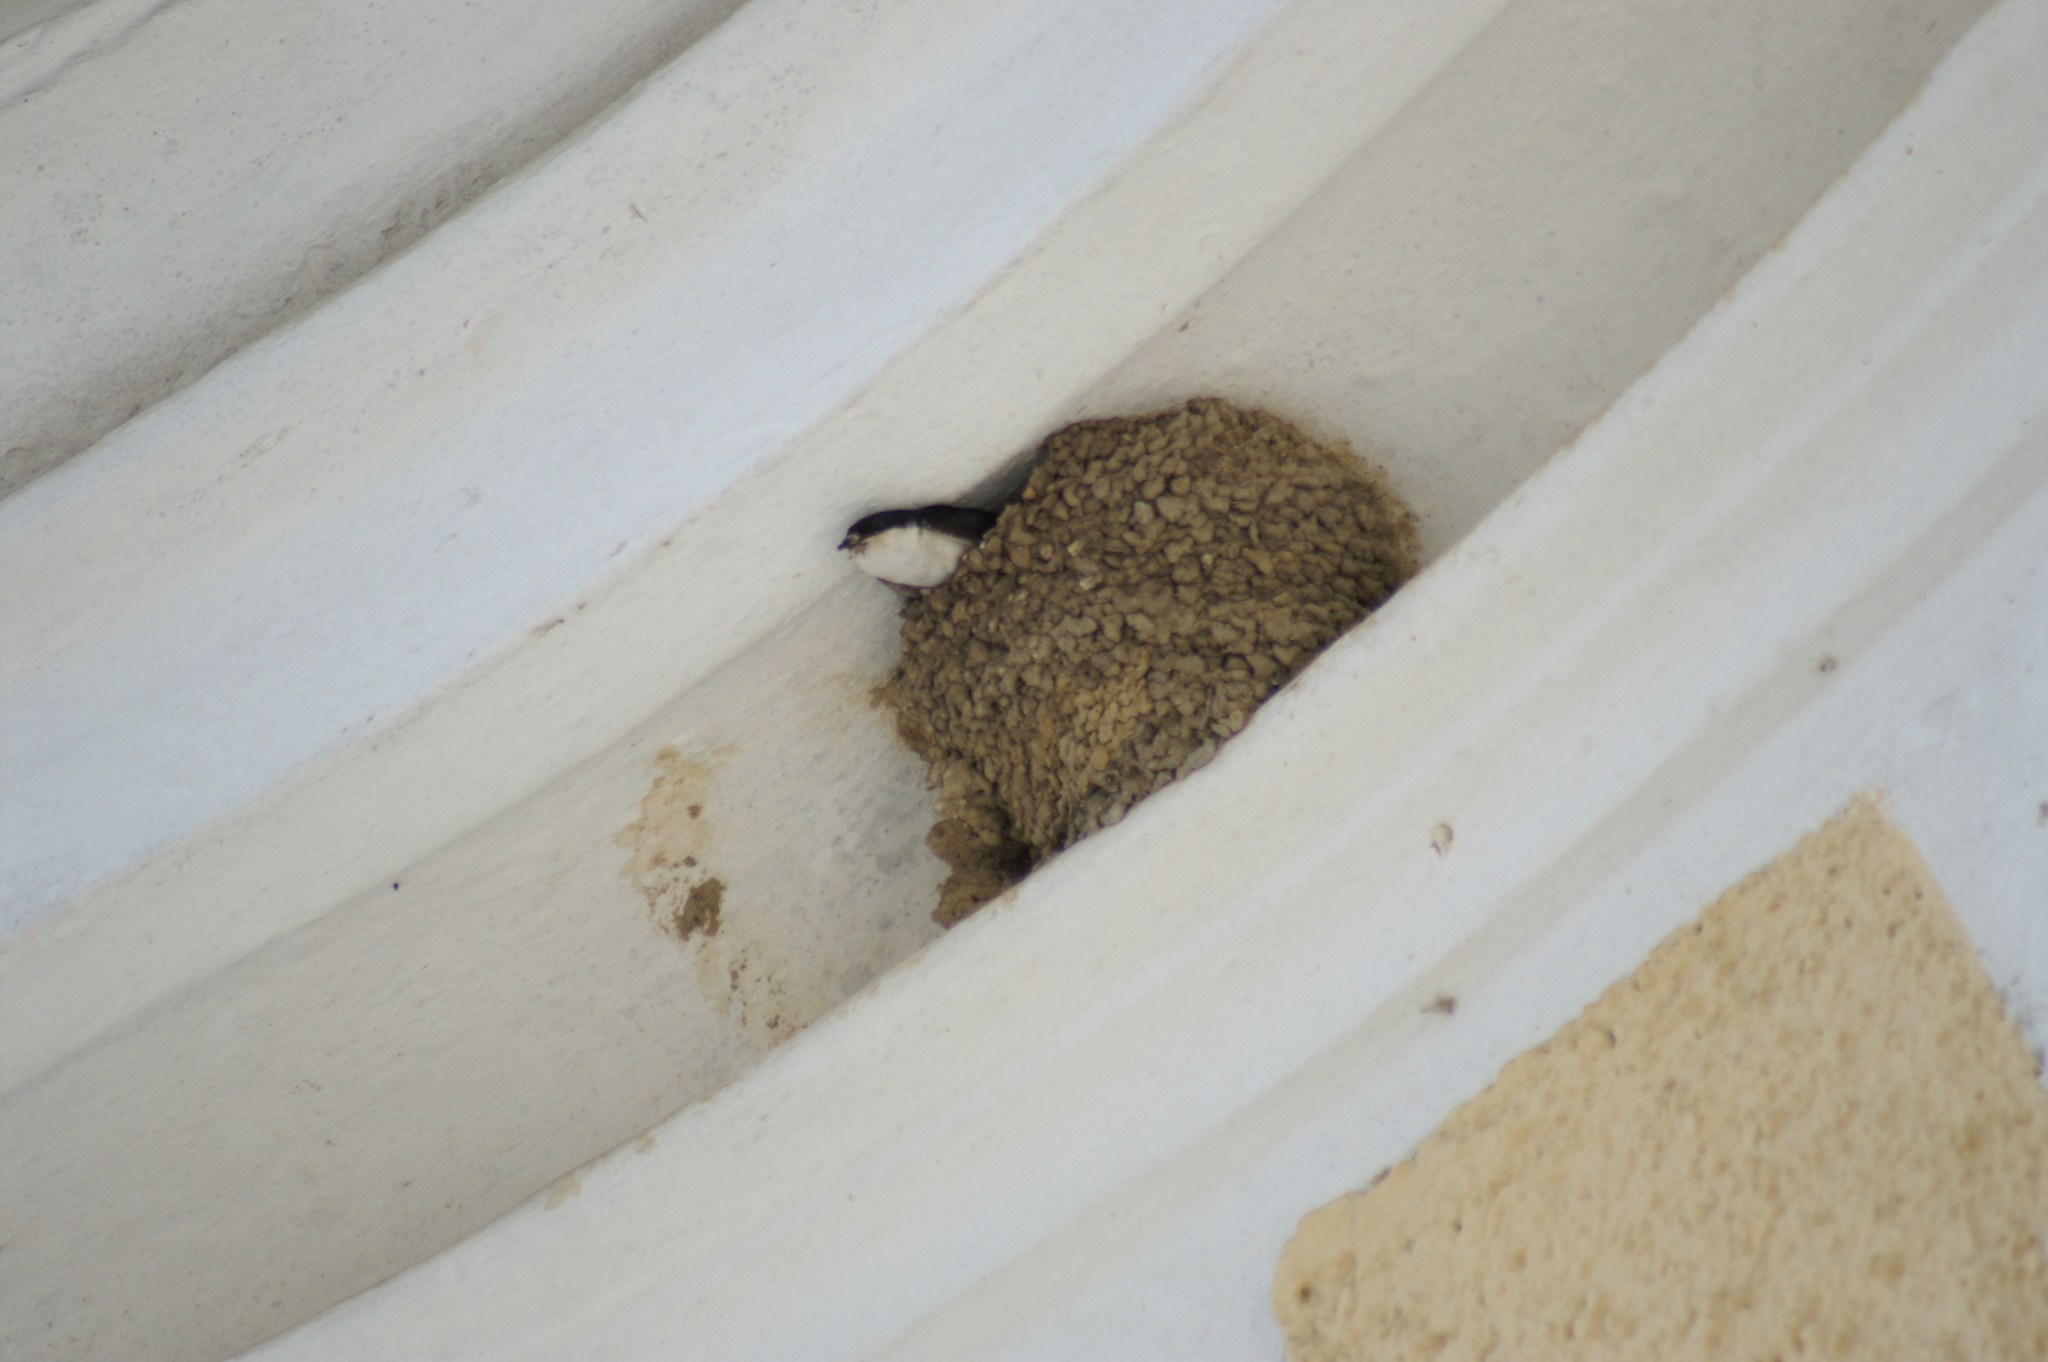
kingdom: Animalia
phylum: Chordata
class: Aves
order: Passeriformes
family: Hirundinidae
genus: Delichon
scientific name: Delichon urbicum
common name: Common house martin
